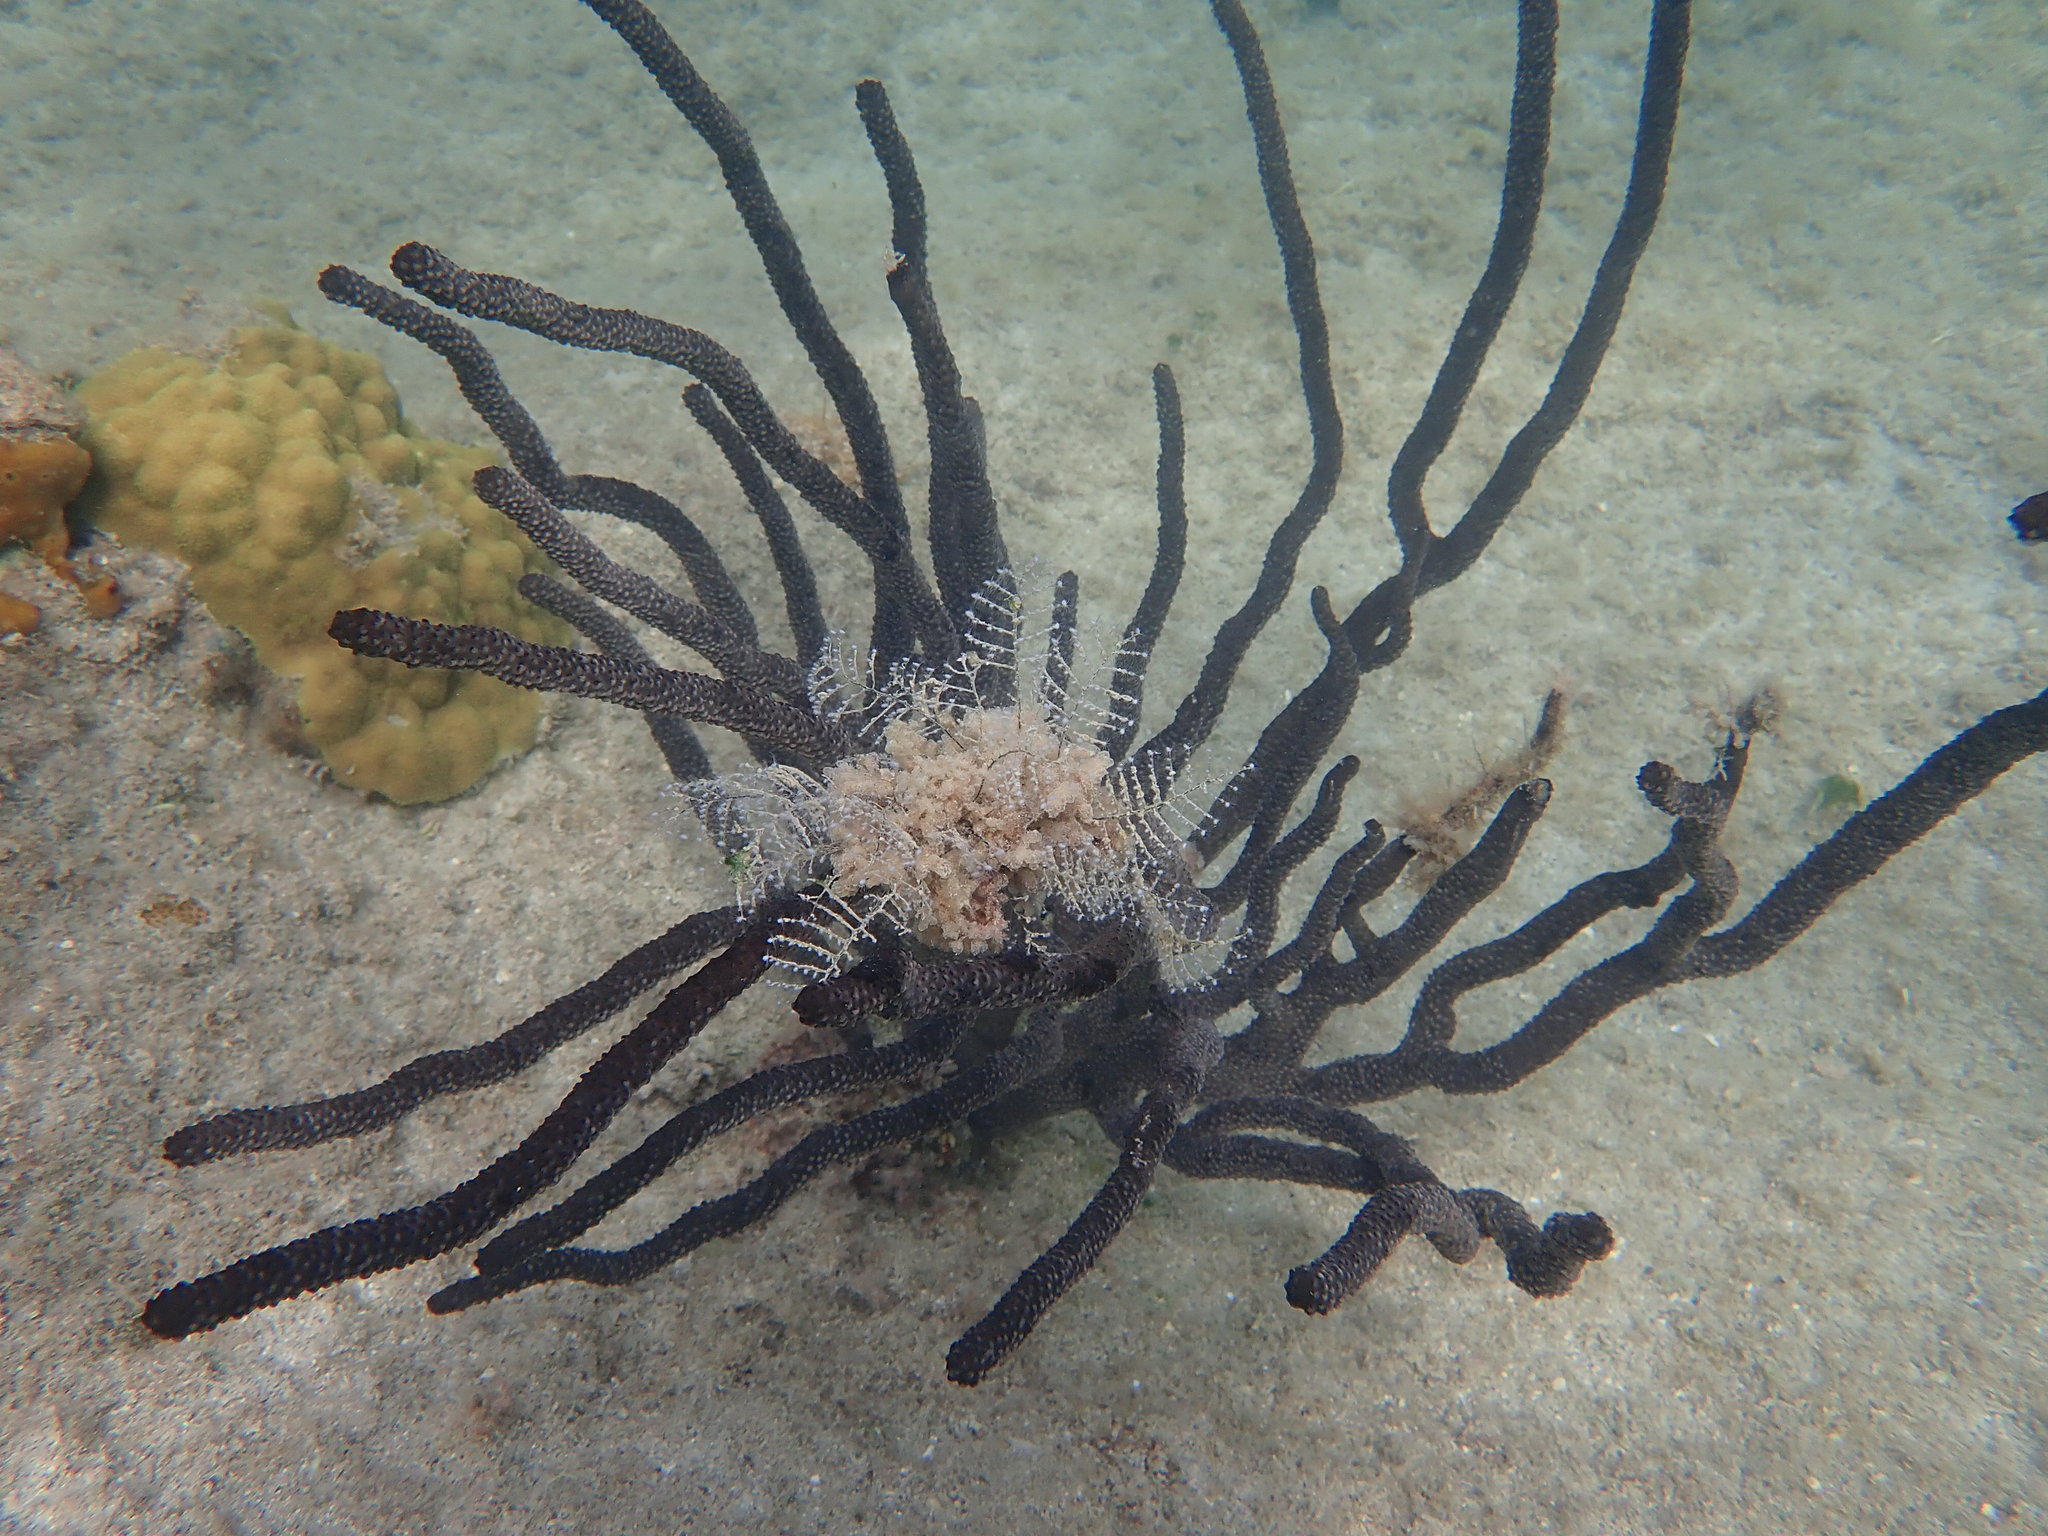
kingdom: Animalia
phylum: Cnidaria
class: Hydrozoa
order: Anthoathecata
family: Pennariidae
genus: Pennaria
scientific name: Pennaria disticha
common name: Feather hydroid
